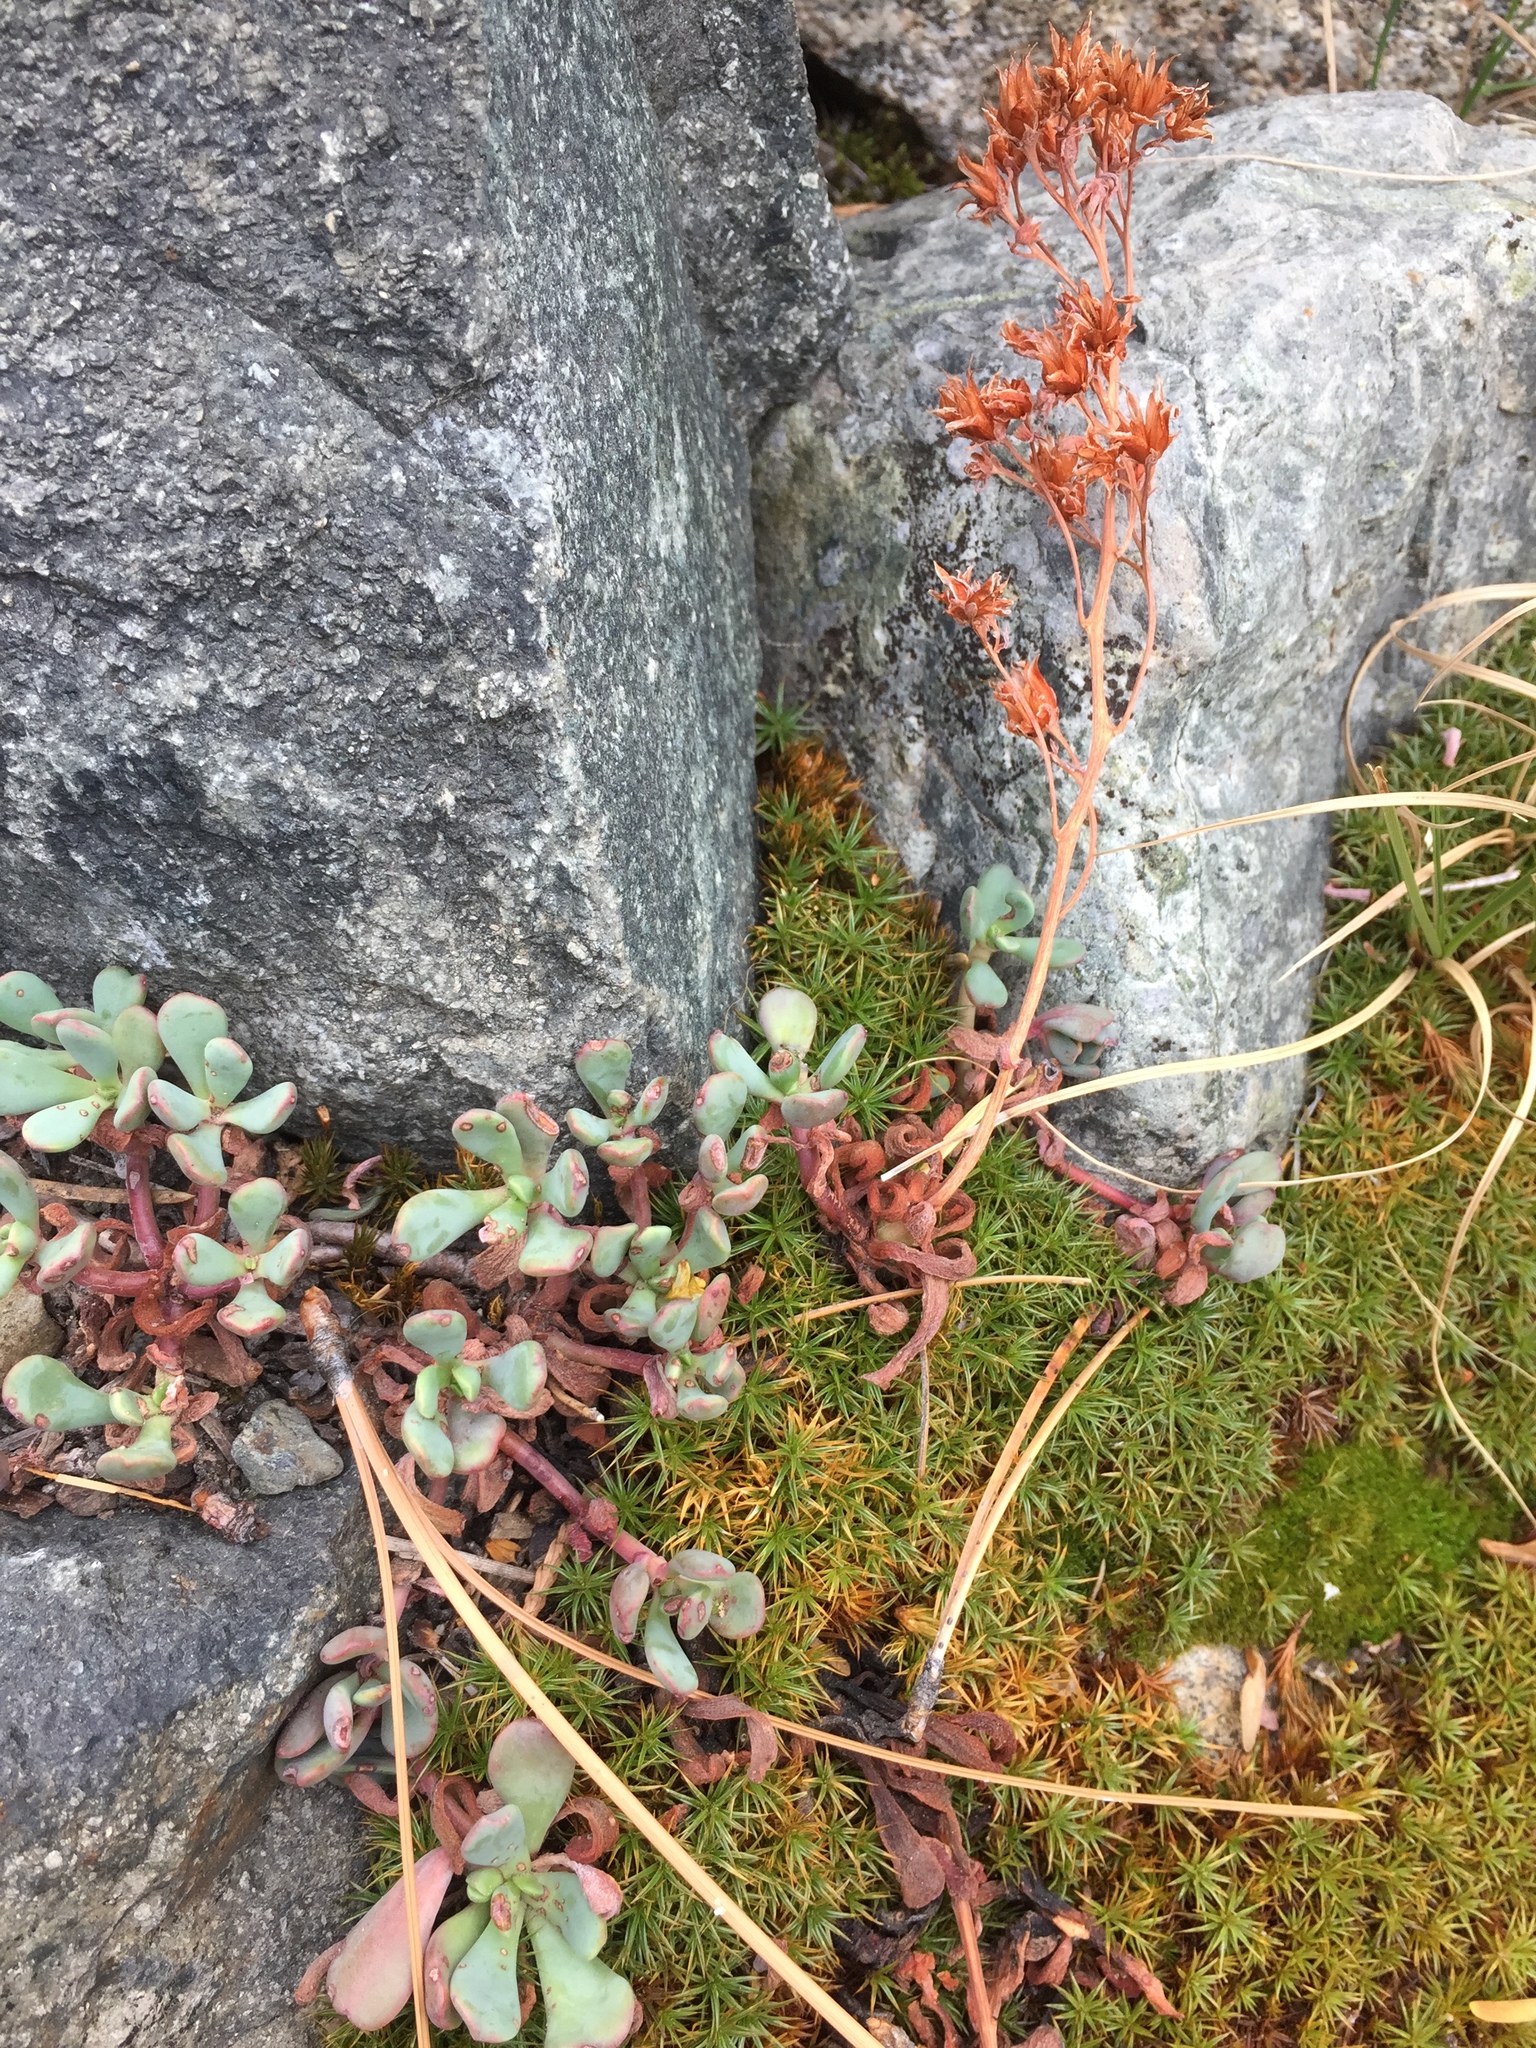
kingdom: Plantae
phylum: Tracheophyta
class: Magnoliopsida
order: Saxifragales
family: Crassulaceae
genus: Sedum
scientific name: Sedum obtusatum
